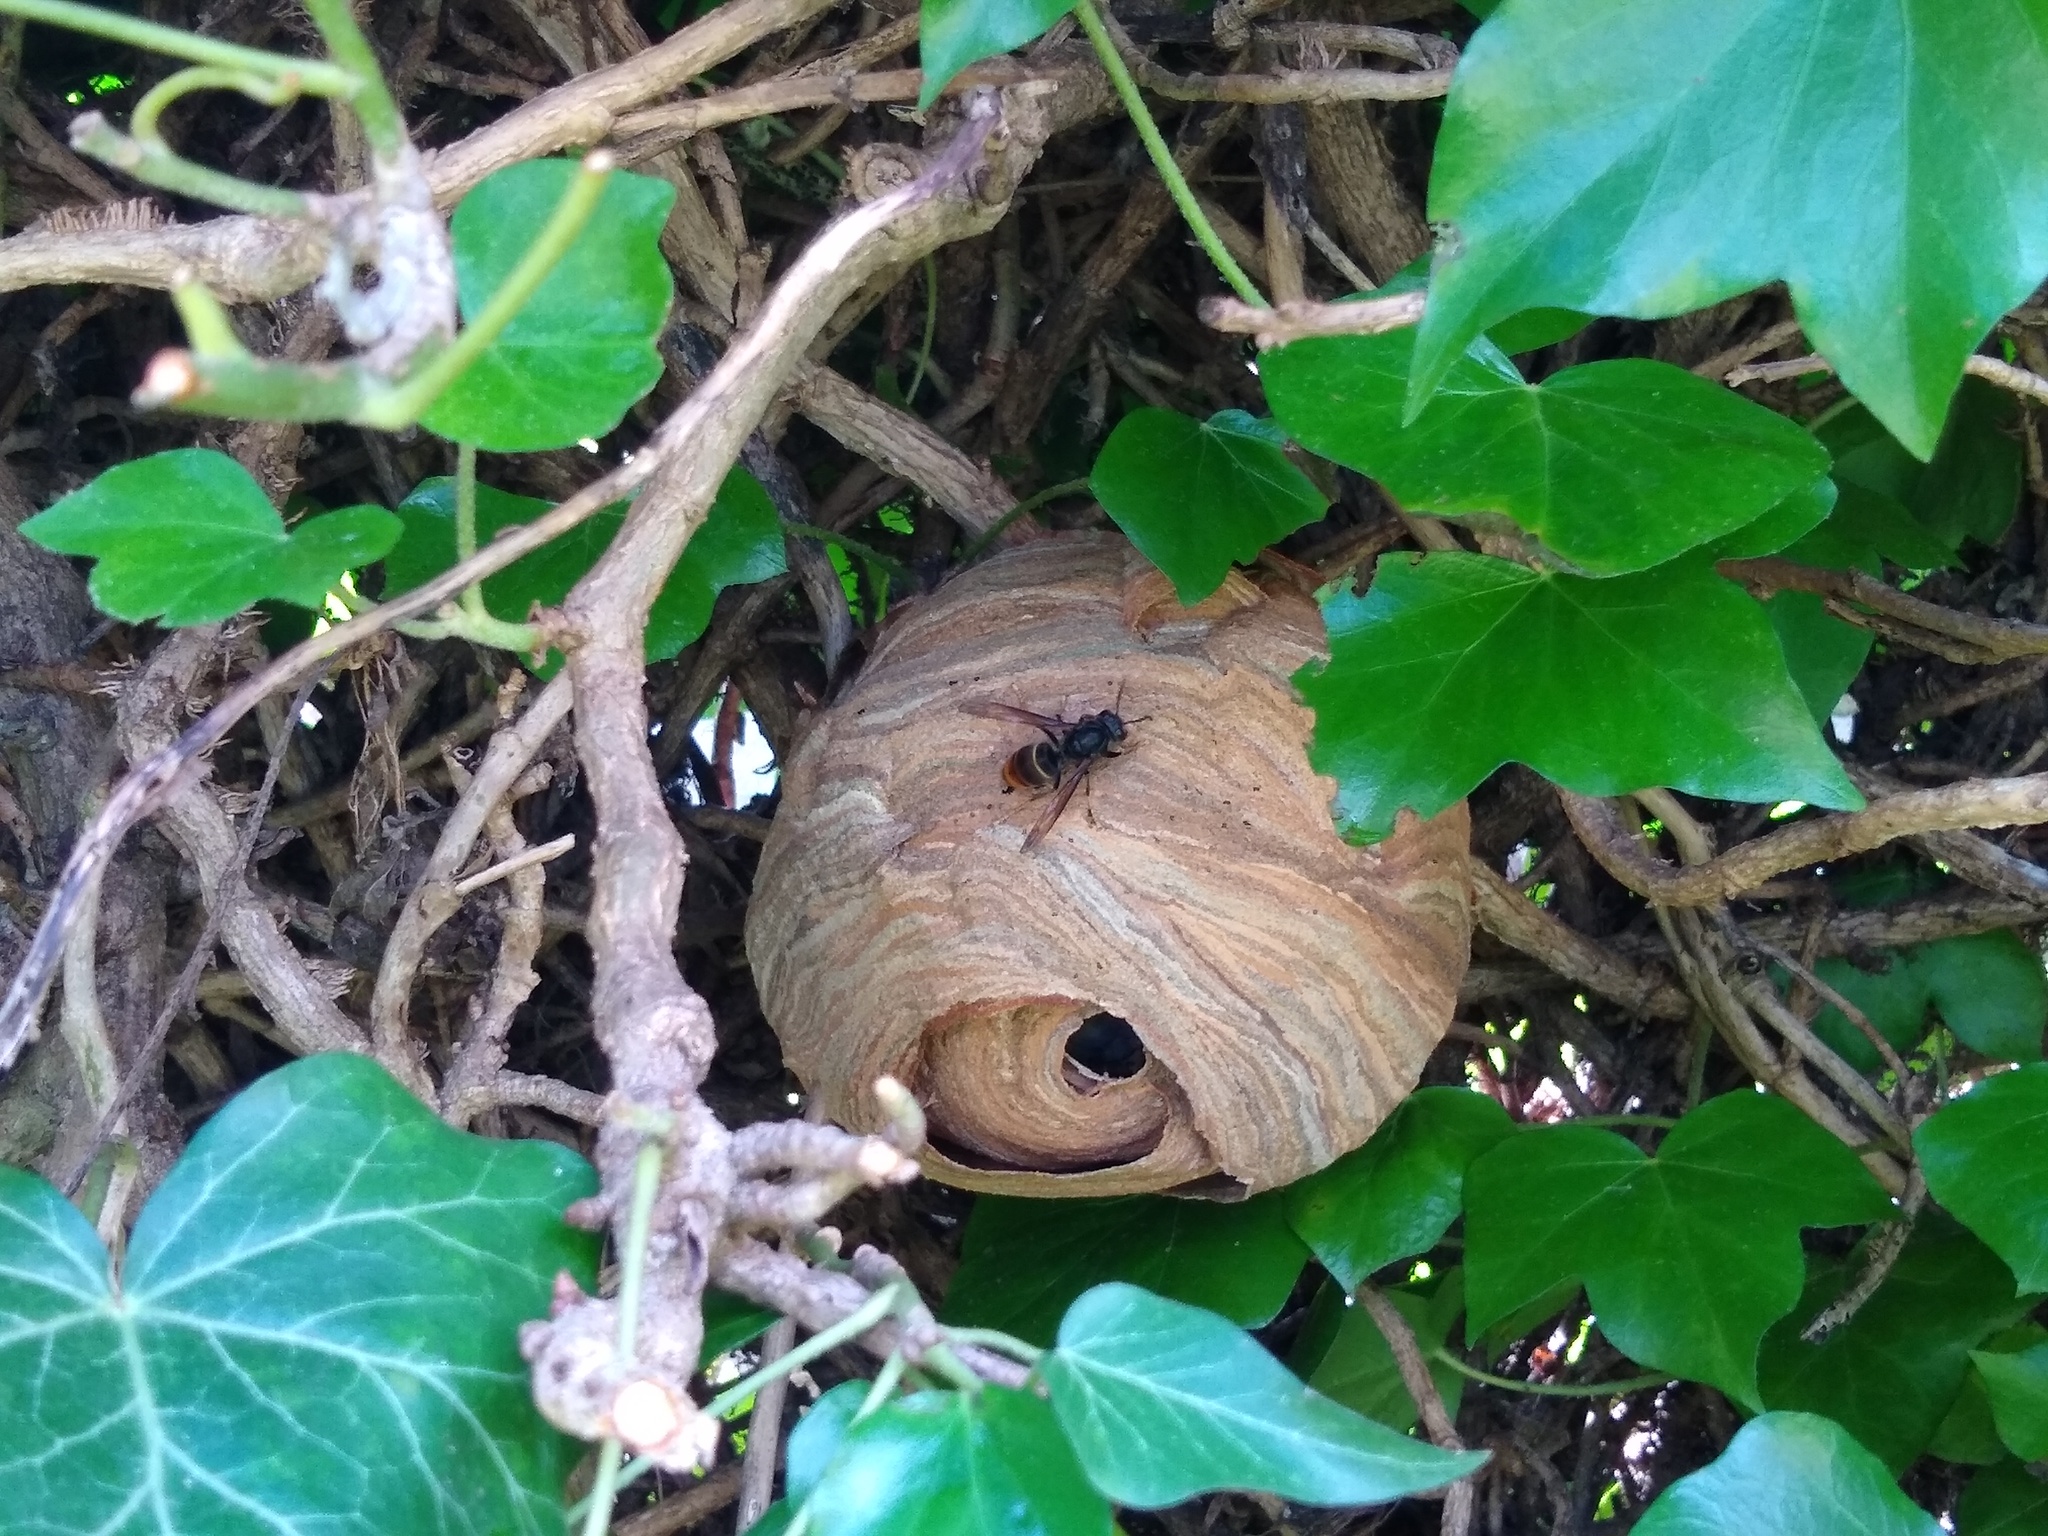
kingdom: Animalia
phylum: Arthropoda
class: Insecta
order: Hymenoptera
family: Vespidae
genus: Vespa
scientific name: Vespa velutina
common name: Asian hornet
